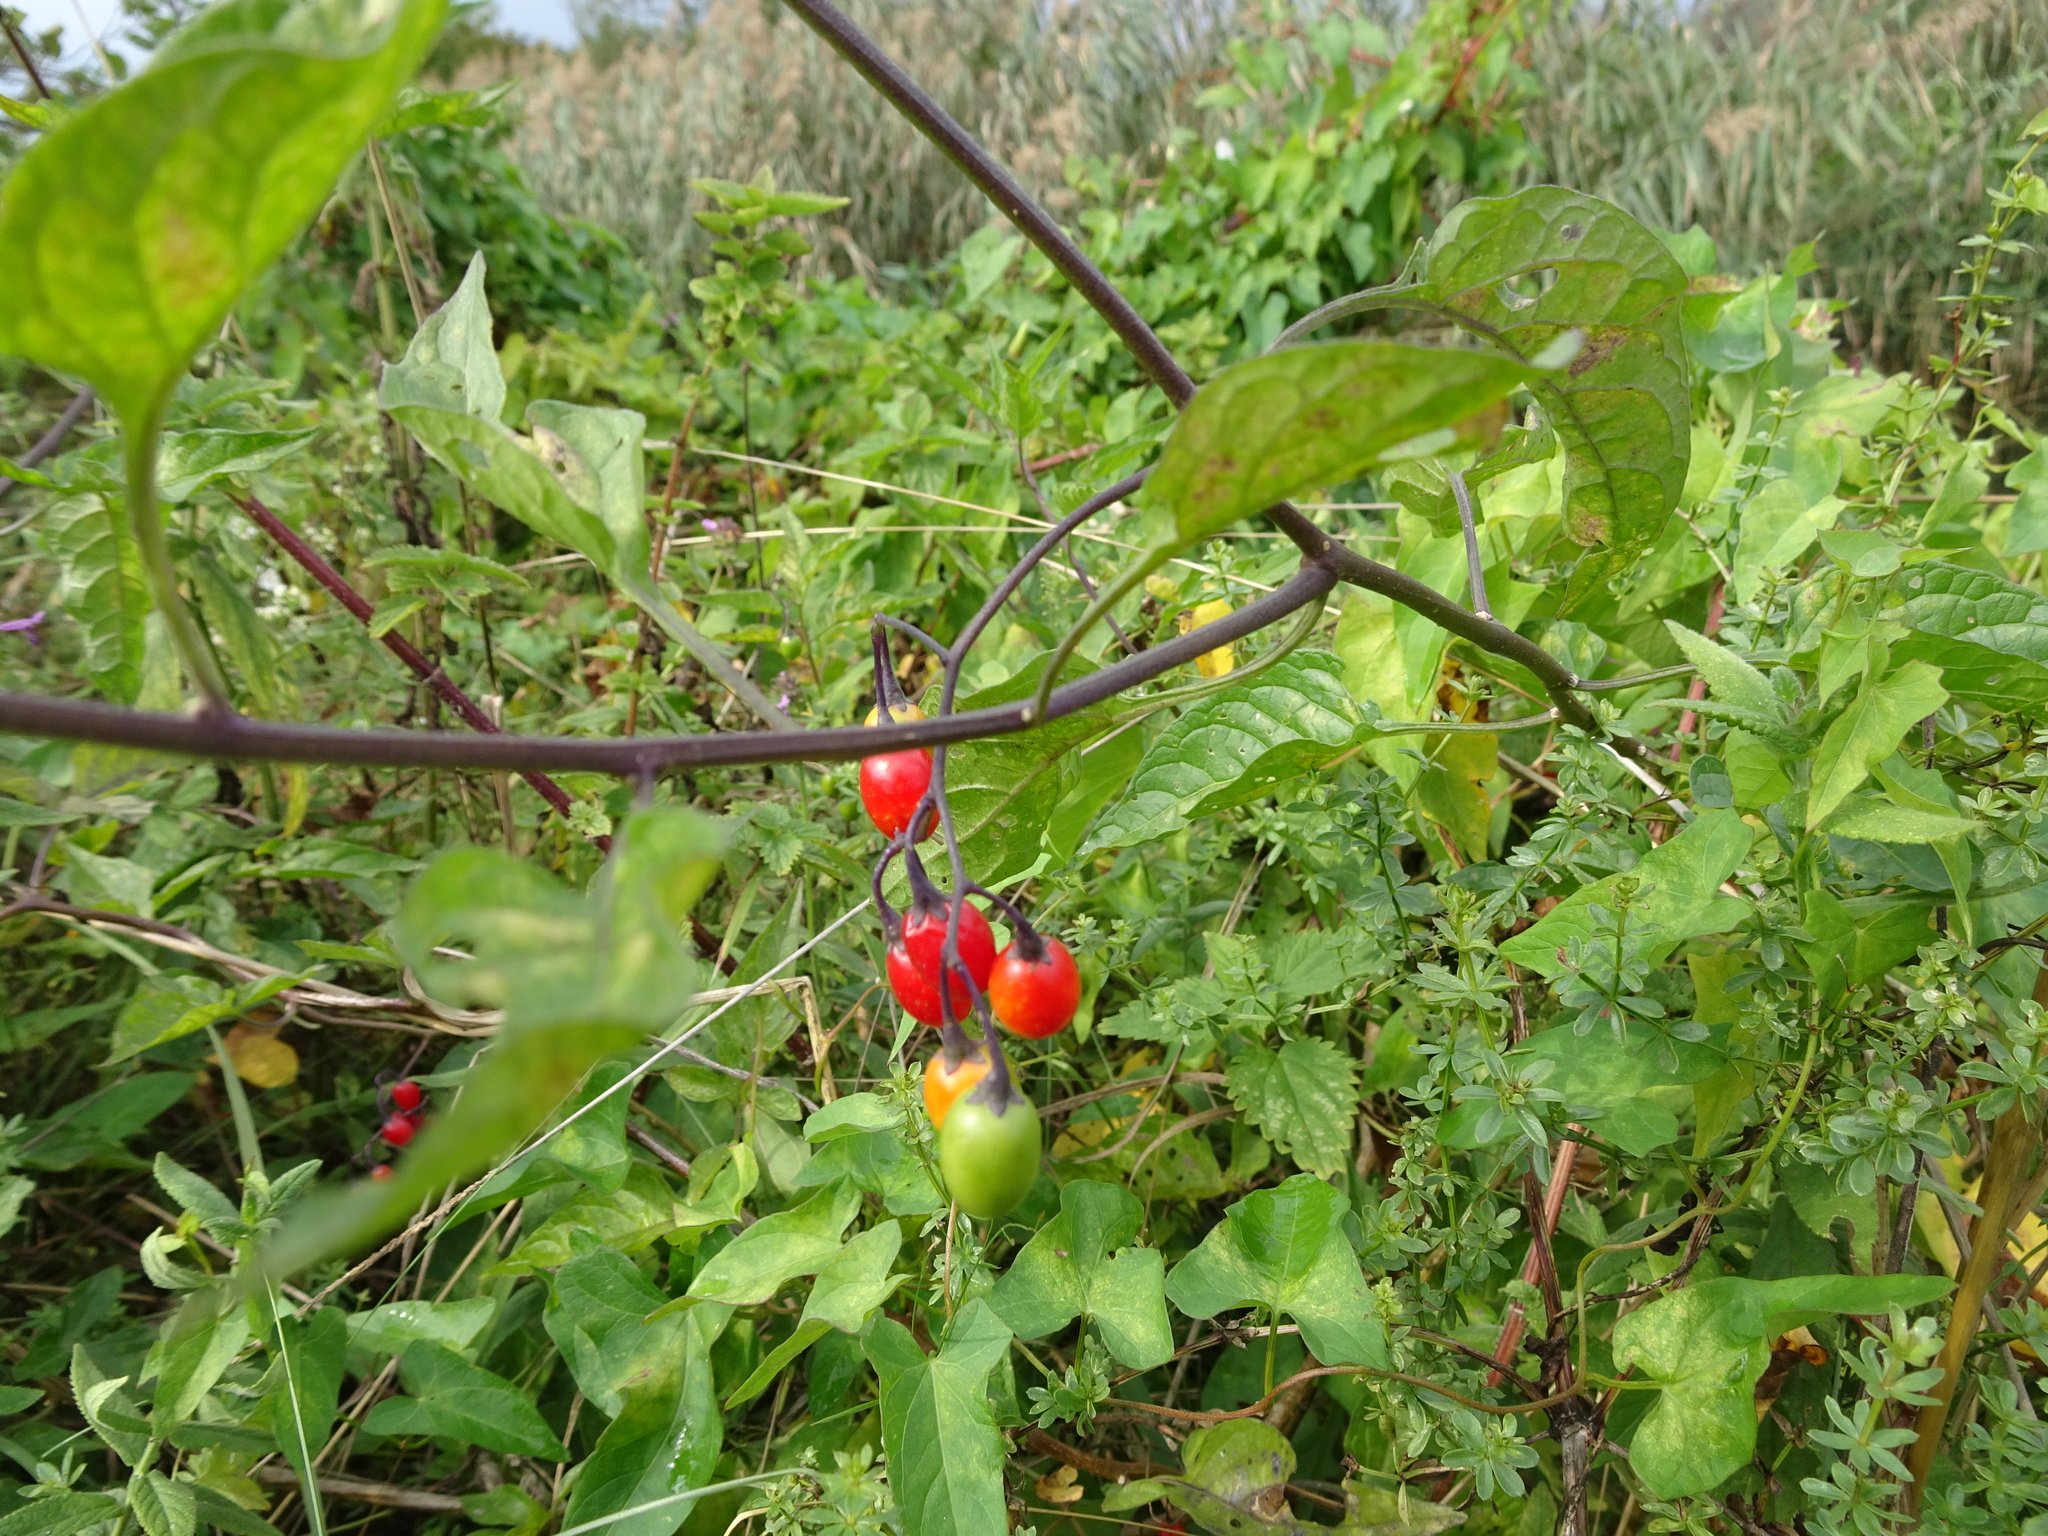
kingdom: Plantae
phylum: Tracheophyta
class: Magnoliopsida
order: Solanales
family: Solanaceae
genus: Solanum
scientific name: Solanum dulcamara
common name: Climbing nightshade
